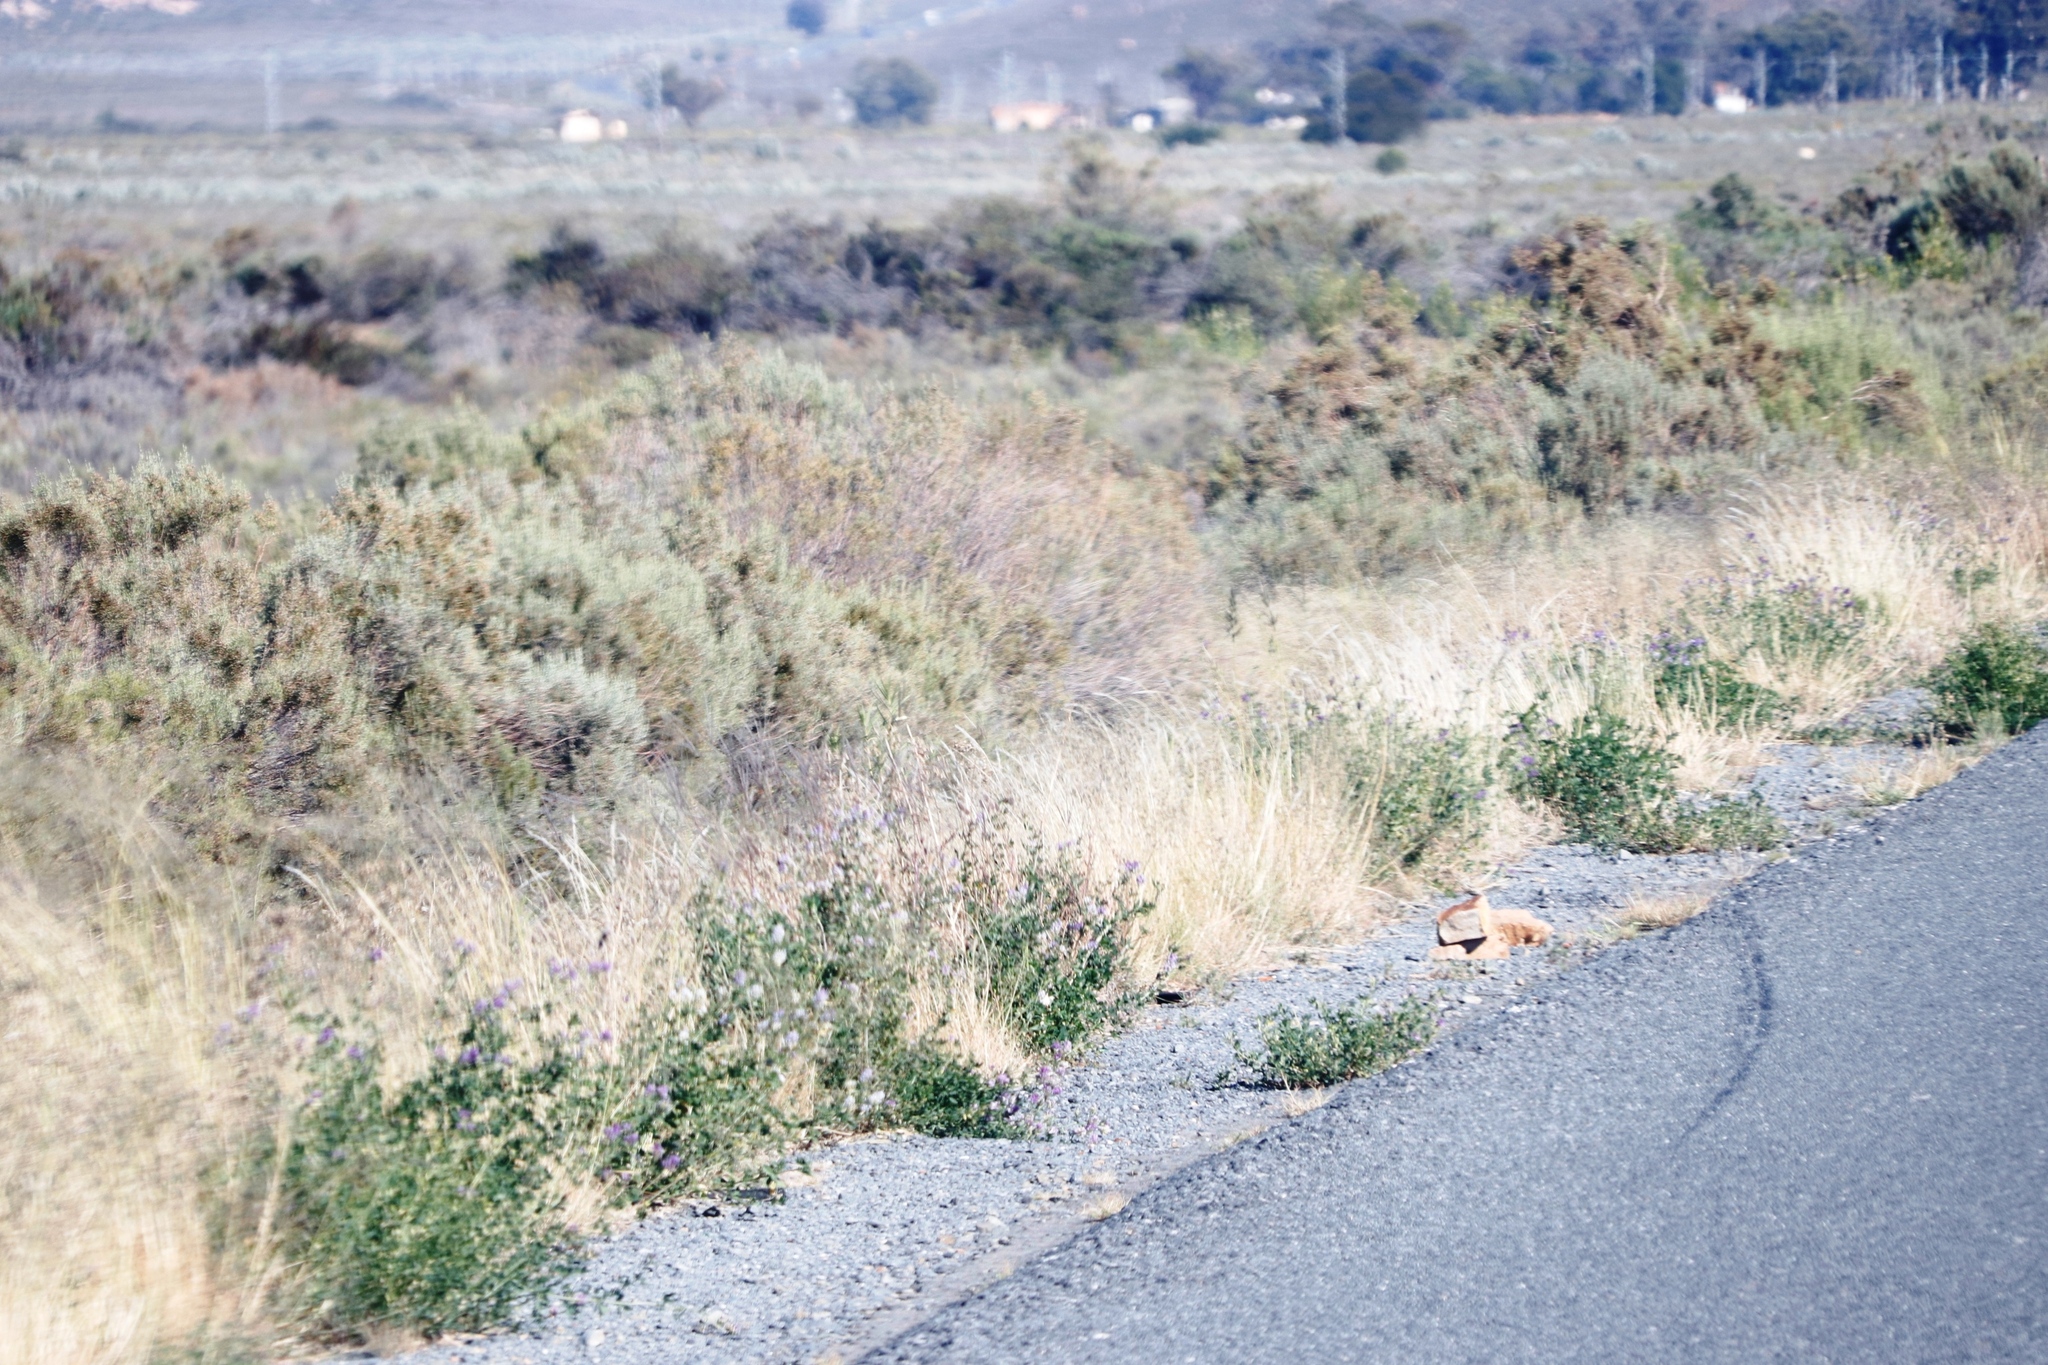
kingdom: Plantae
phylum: Tracheophyta
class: Magnoliopsida
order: Fabales
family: Fabaceae
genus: Medicago
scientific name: Medicago sativa
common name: Alfalfa
